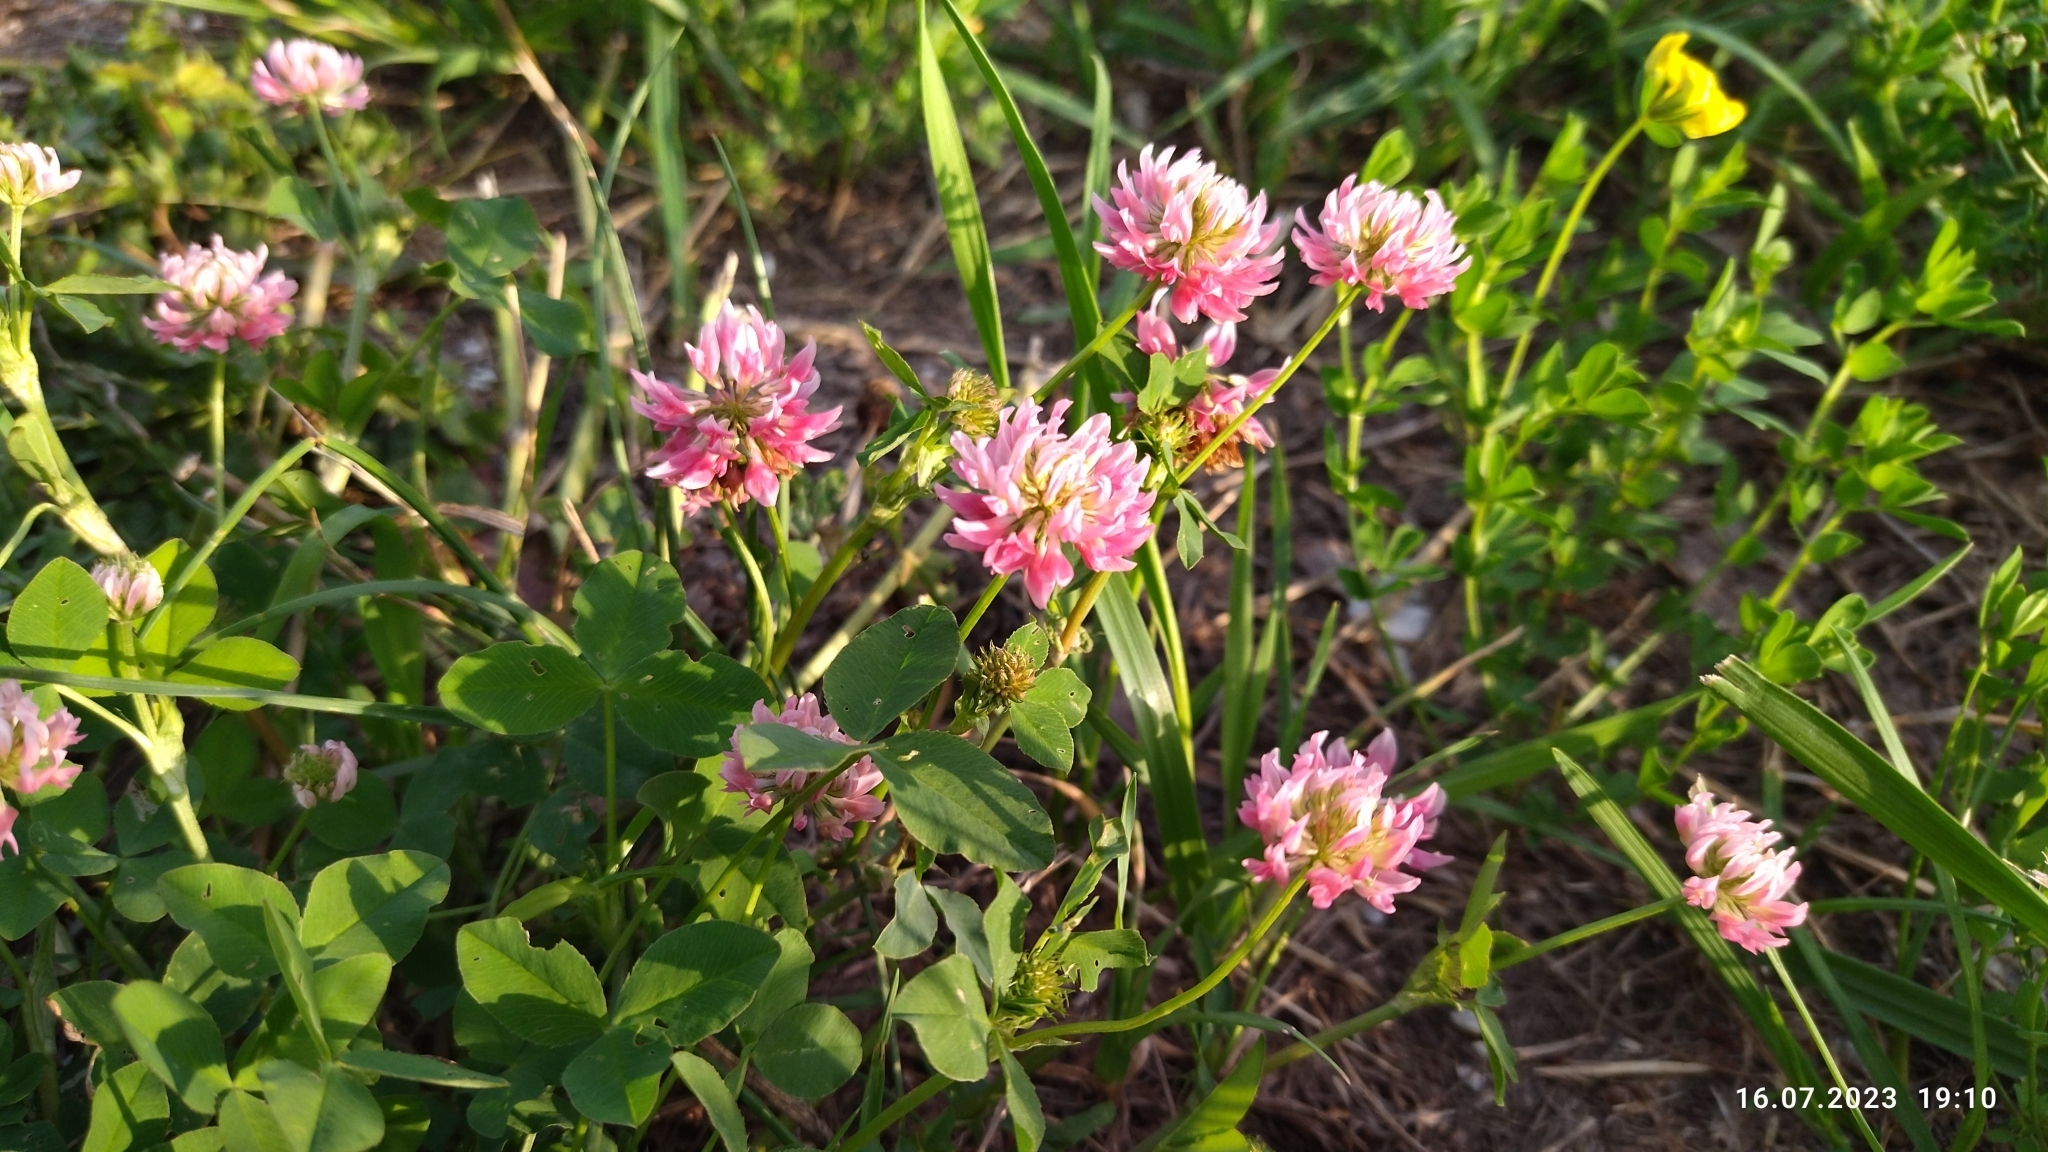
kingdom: Plantae
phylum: Tracheophyta
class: Magnoliopsida
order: Fabales
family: Fabaceae
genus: Trifolium
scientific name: Trifolium hybridum
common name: Alsike clover
